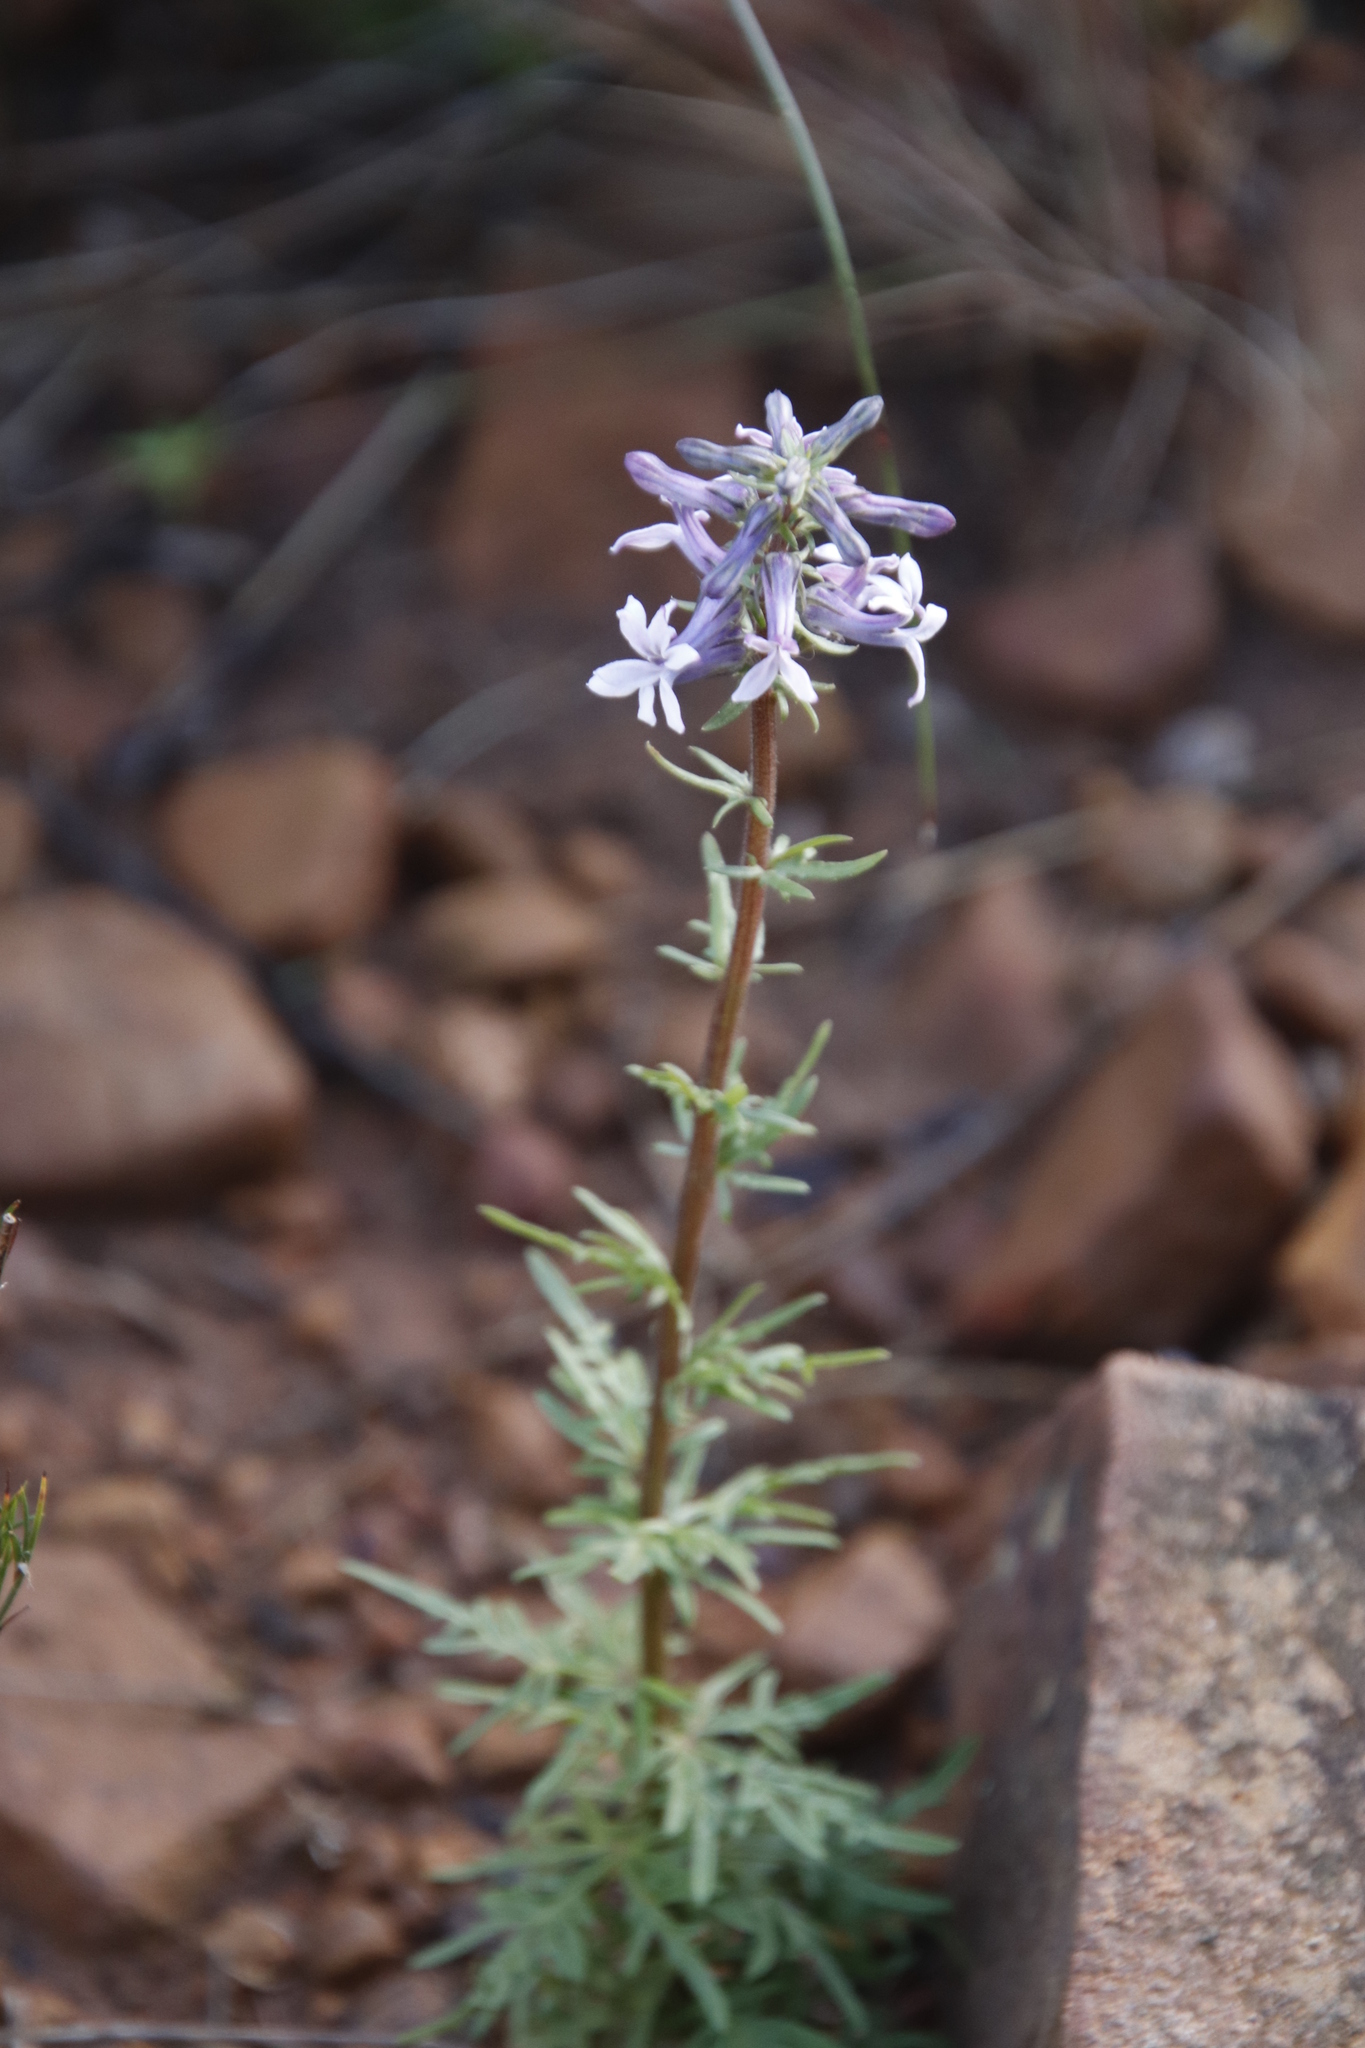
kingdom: Plantae
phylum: Tracheophyta
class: Magnoliopsida
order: Asterales
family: Campanulaceae
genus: Cyphia
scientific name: Cyphia bulbosa
